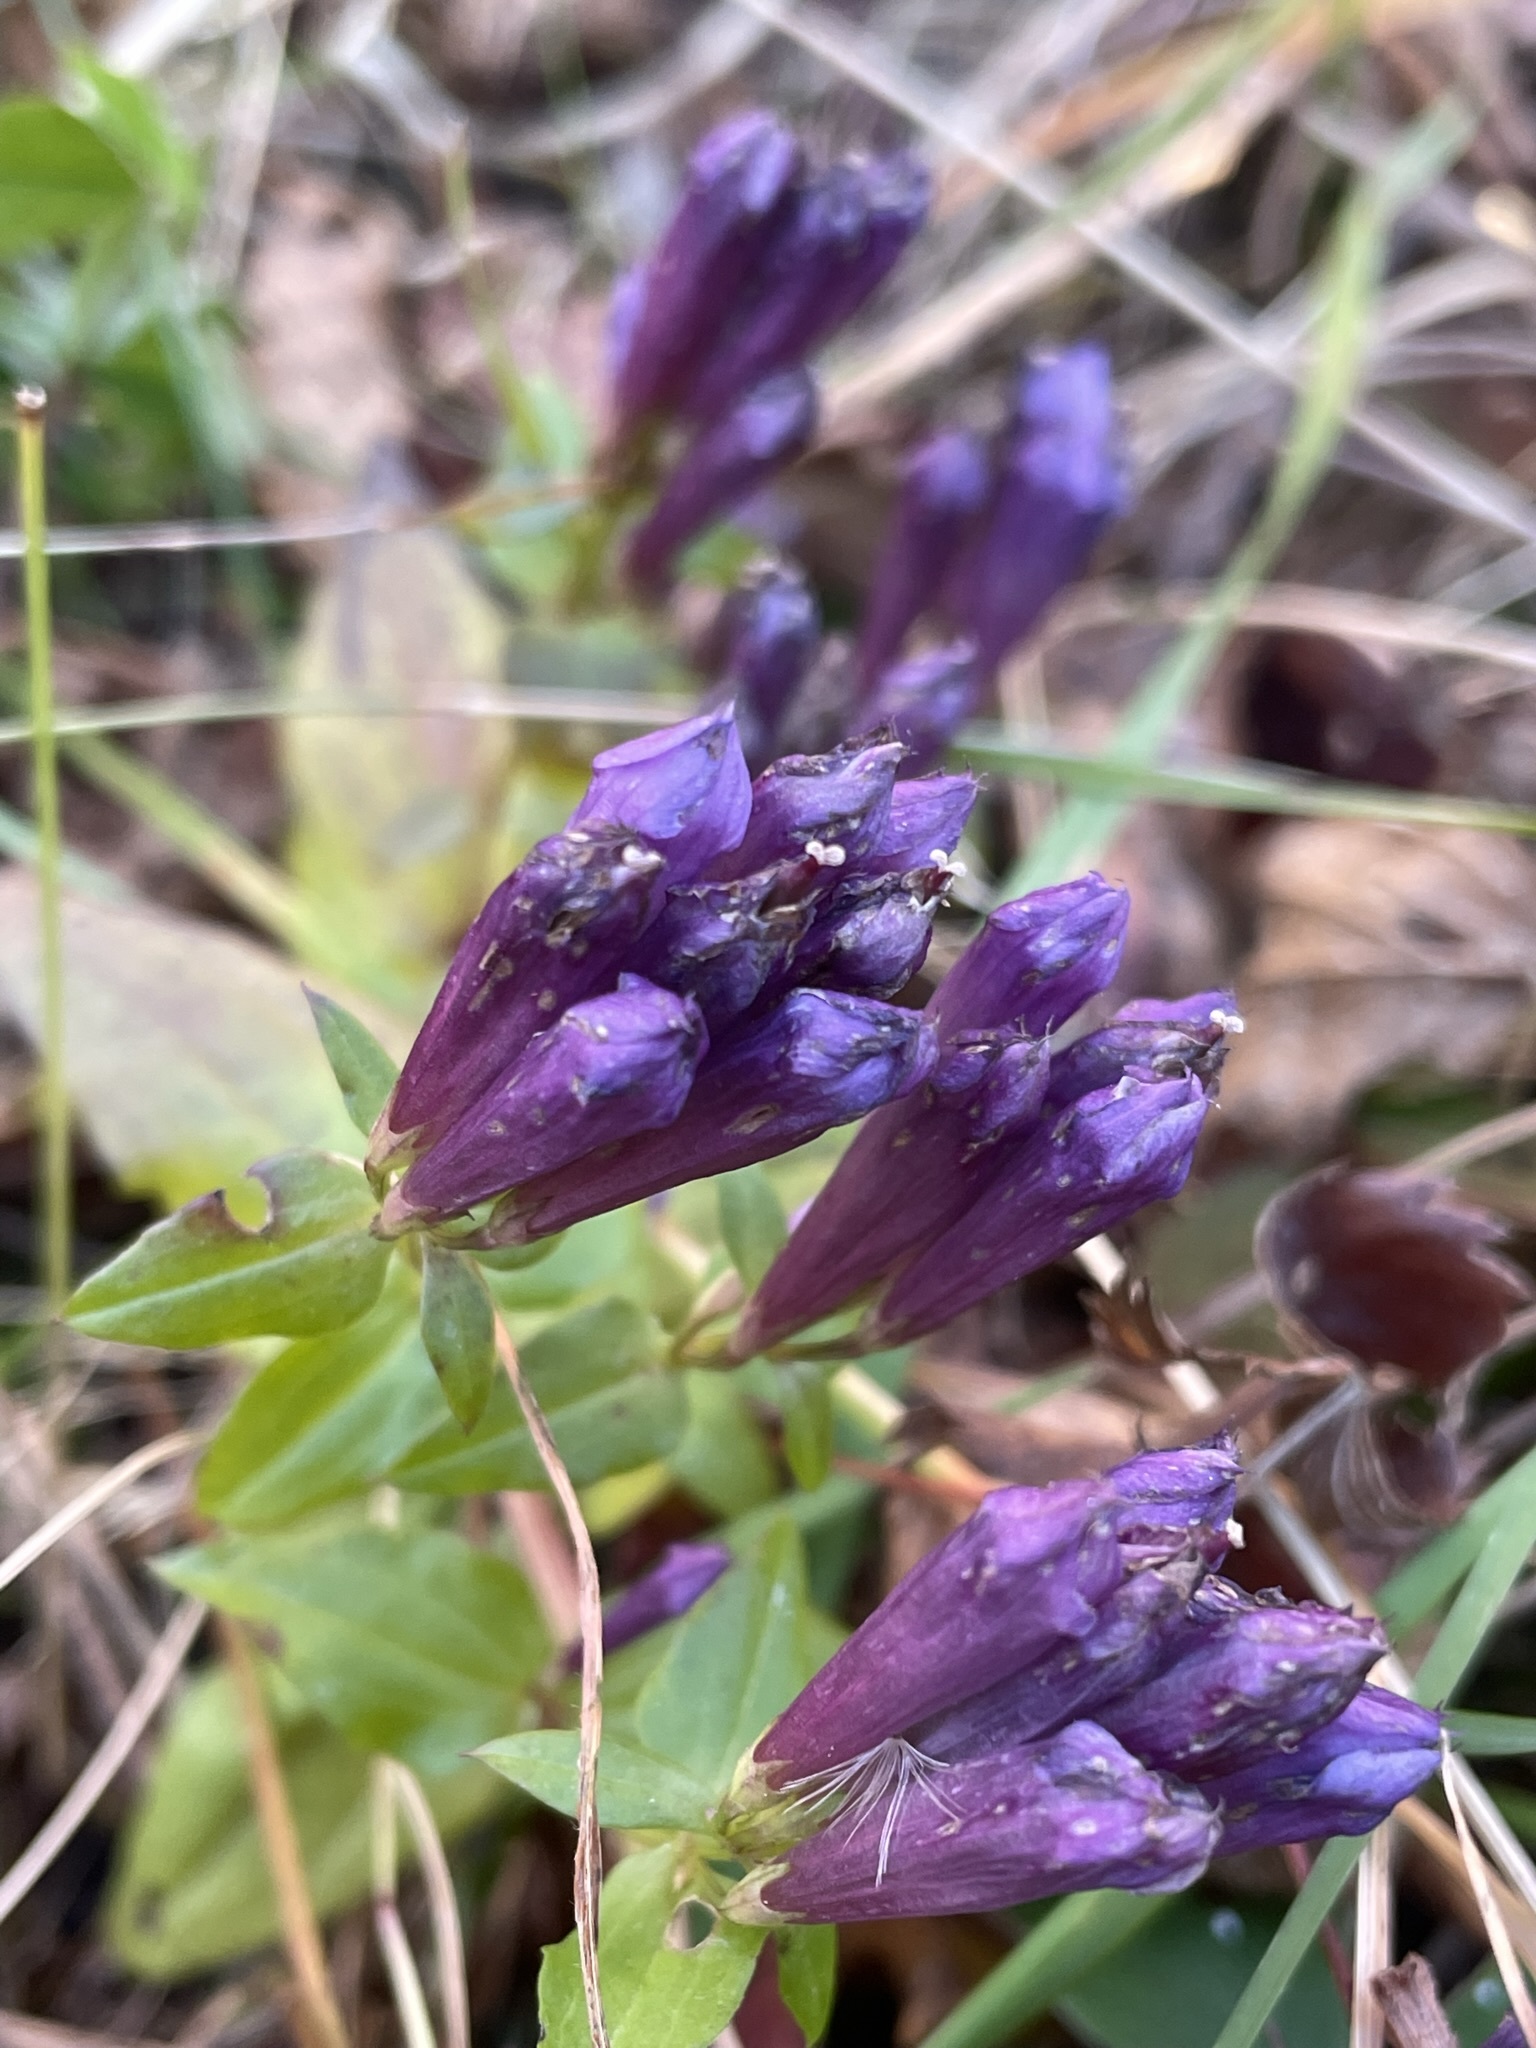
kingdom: Plantae
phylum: Tracheophyta
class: Magnoliopsida
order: Gentianales
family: Gentianaceae
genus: Gentianella
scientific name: Gentianella quinquefolia
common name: Agueweed
